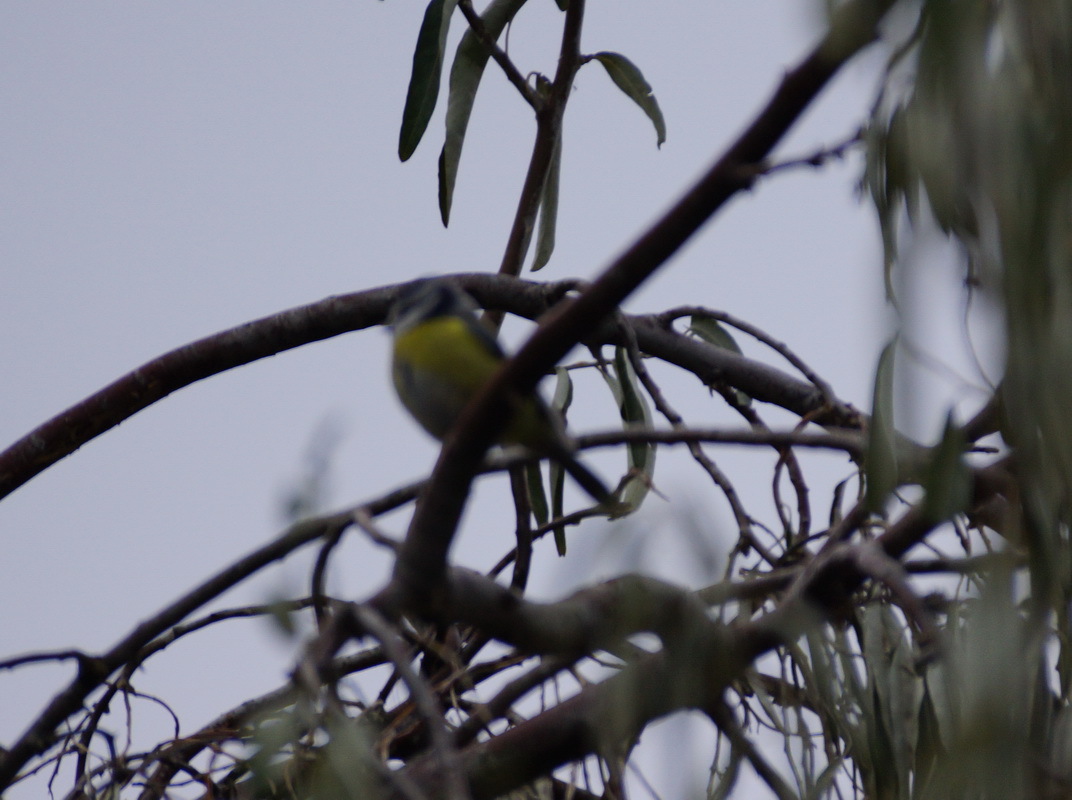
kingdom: Animalia
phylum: Chordata
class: Aves
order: Passeriformes
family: Paridae
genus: Cyanistes
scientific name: Cyanistes caeruleus
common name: Eurasian blue tit
